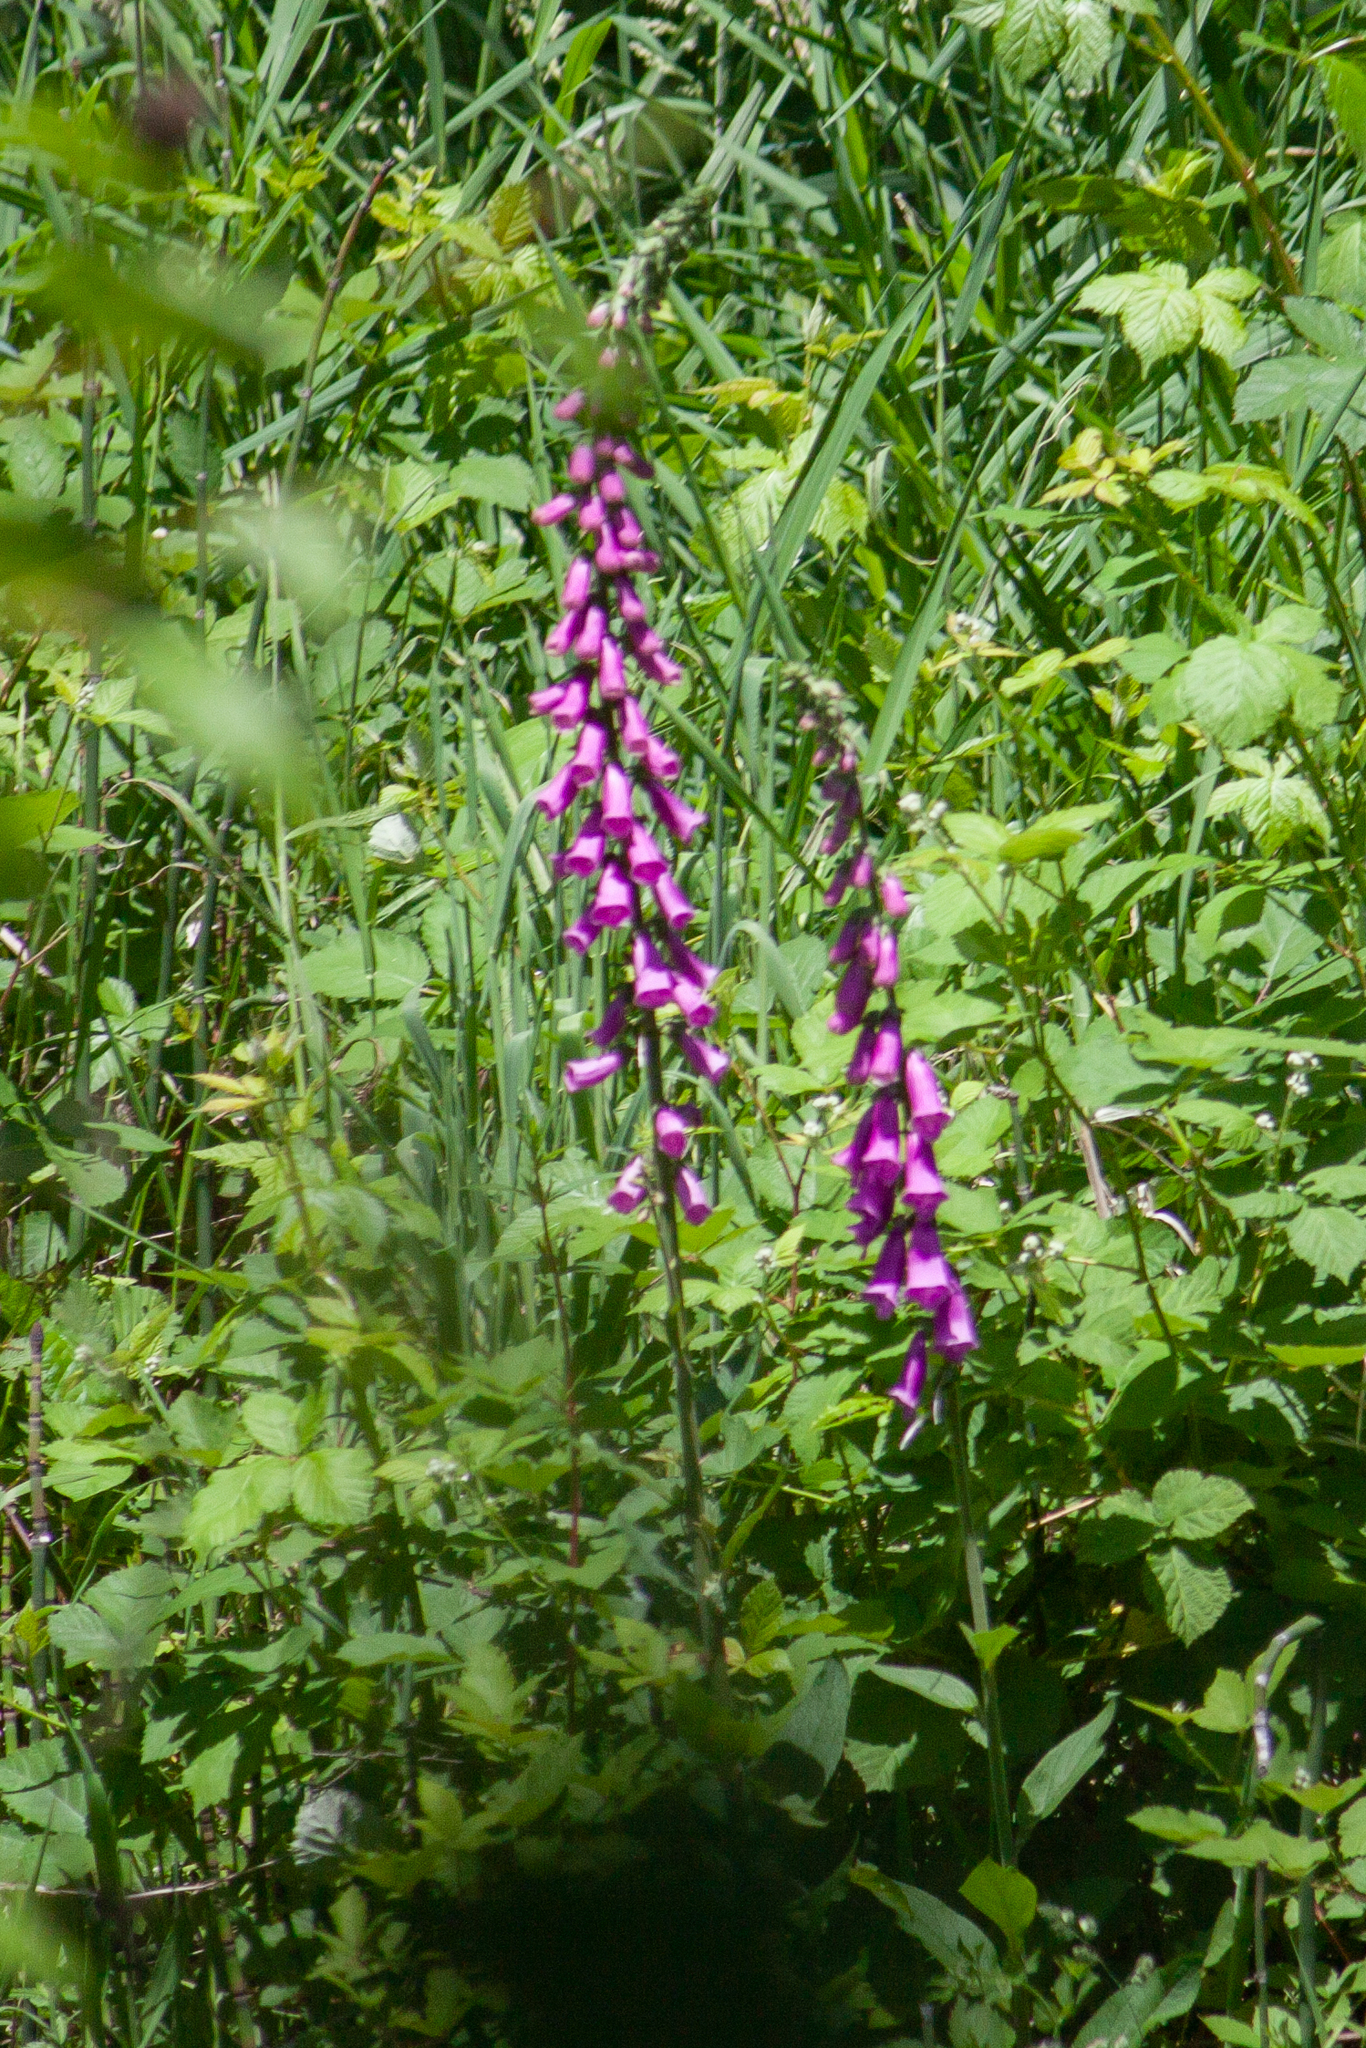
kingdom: Plantae
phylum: Tracheophyta
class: Magnoliopsida
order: Lamiales
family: Plantaginaceae
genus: Digitalis
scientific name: Digitalis purpurea
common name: Foxglove
